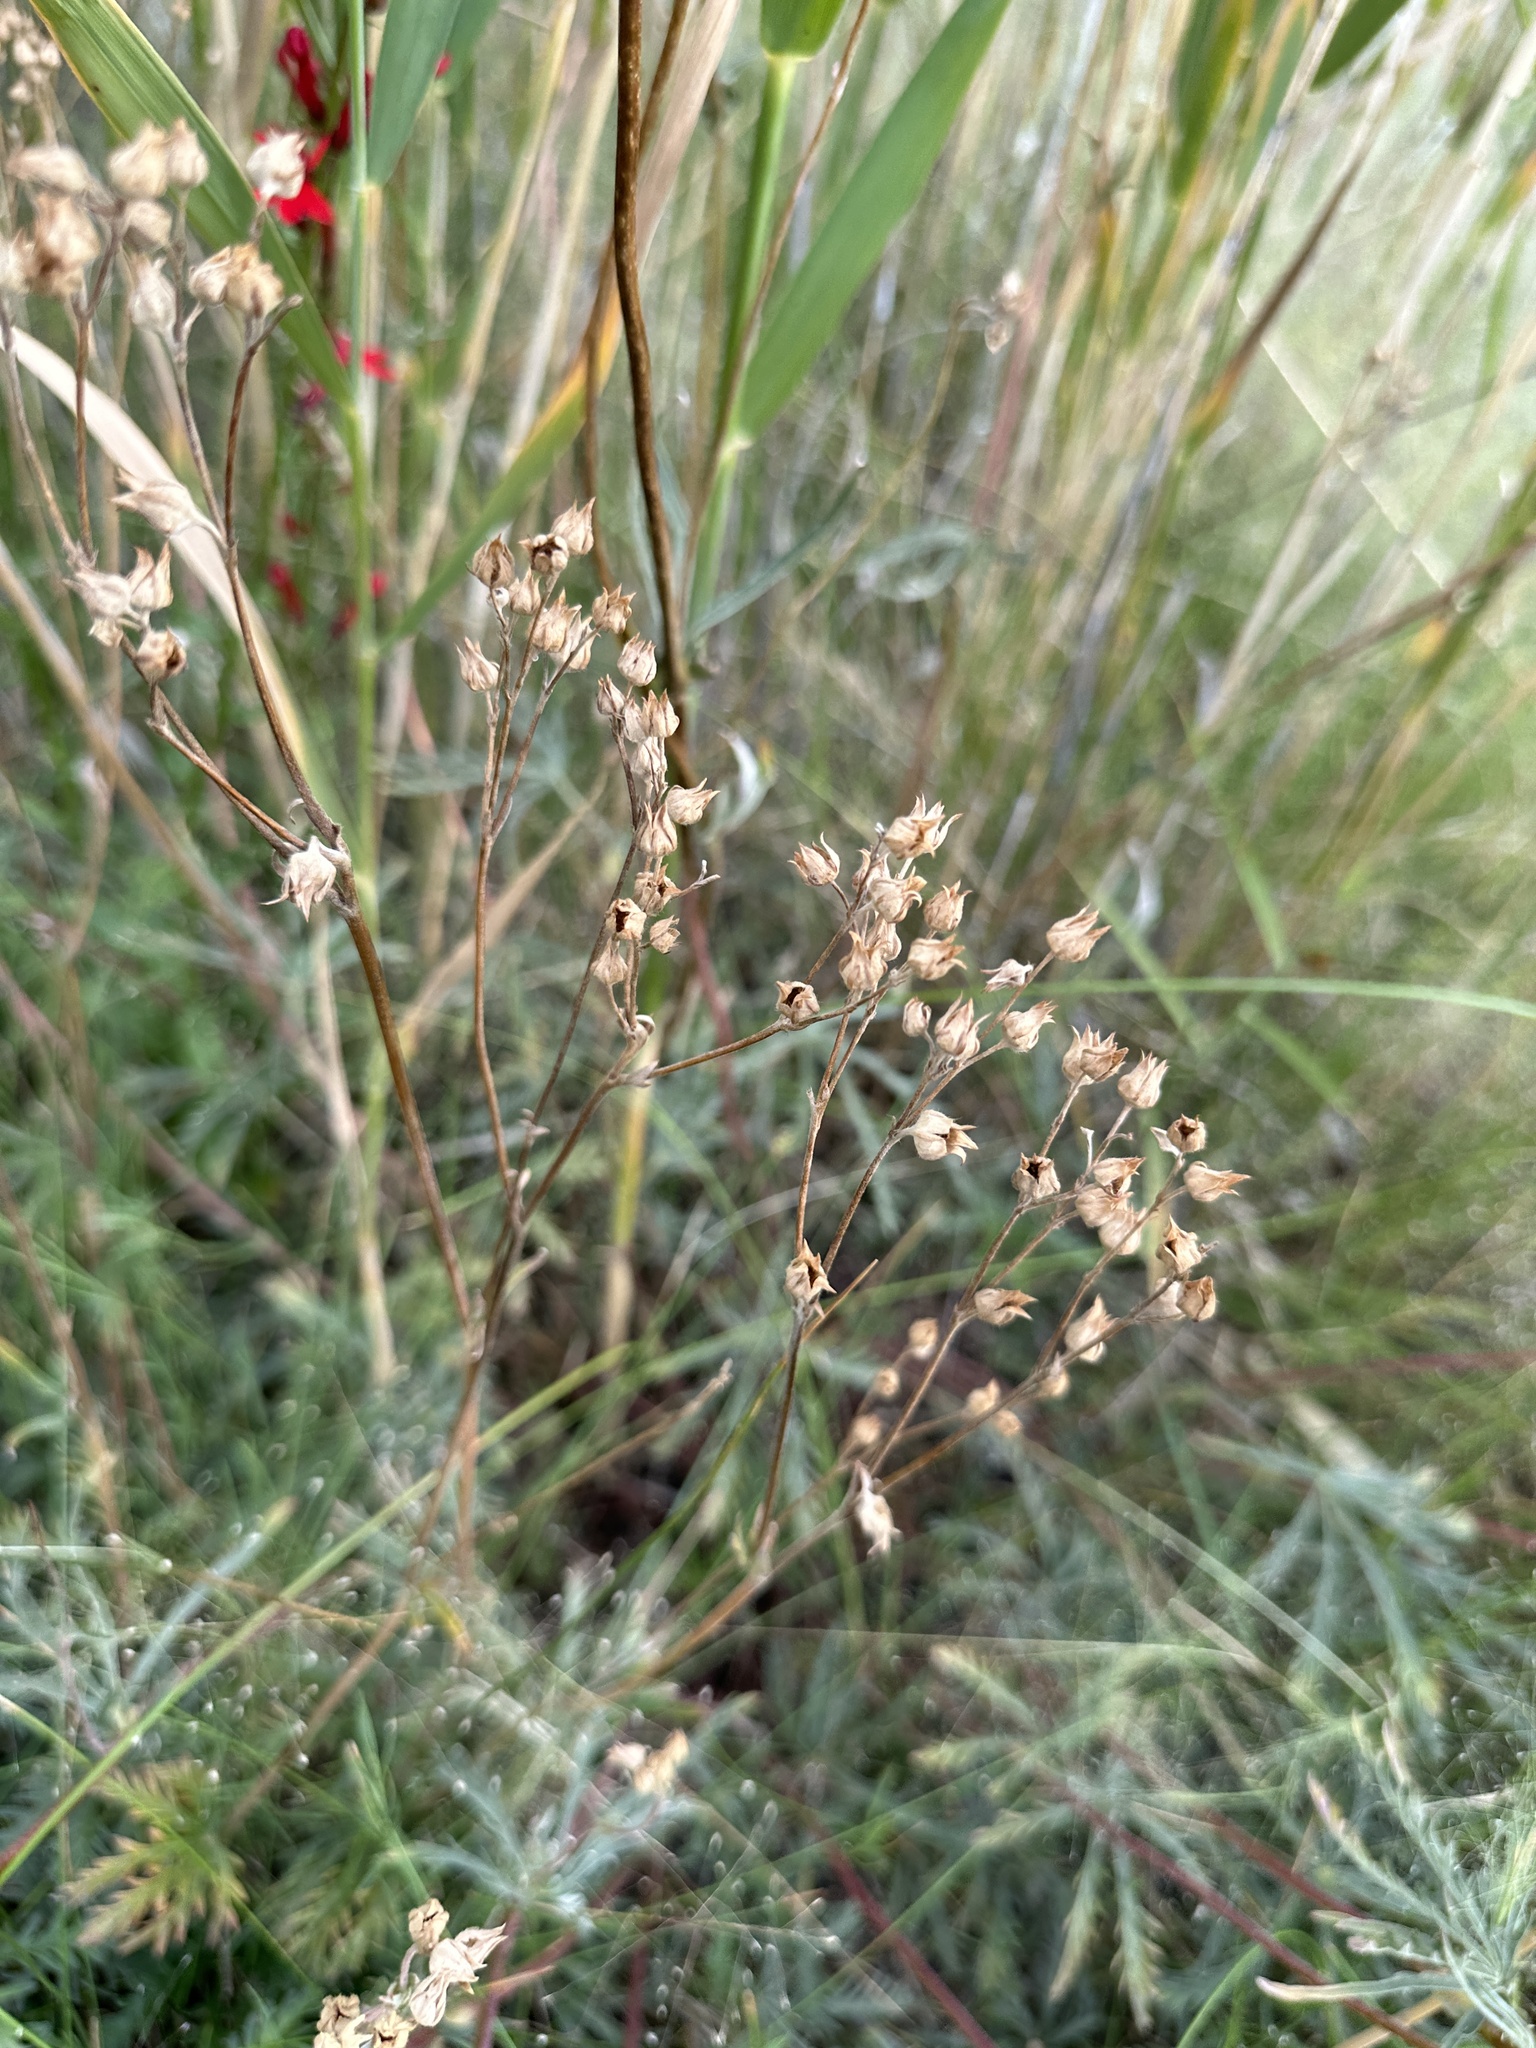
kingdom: Plantae
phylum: Tracheophyta
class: Magnoliopsida
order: Rosales
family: Rosaceae
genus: Potentilla
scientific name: Potentilla gracilis
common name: Graceful cinquefoil
